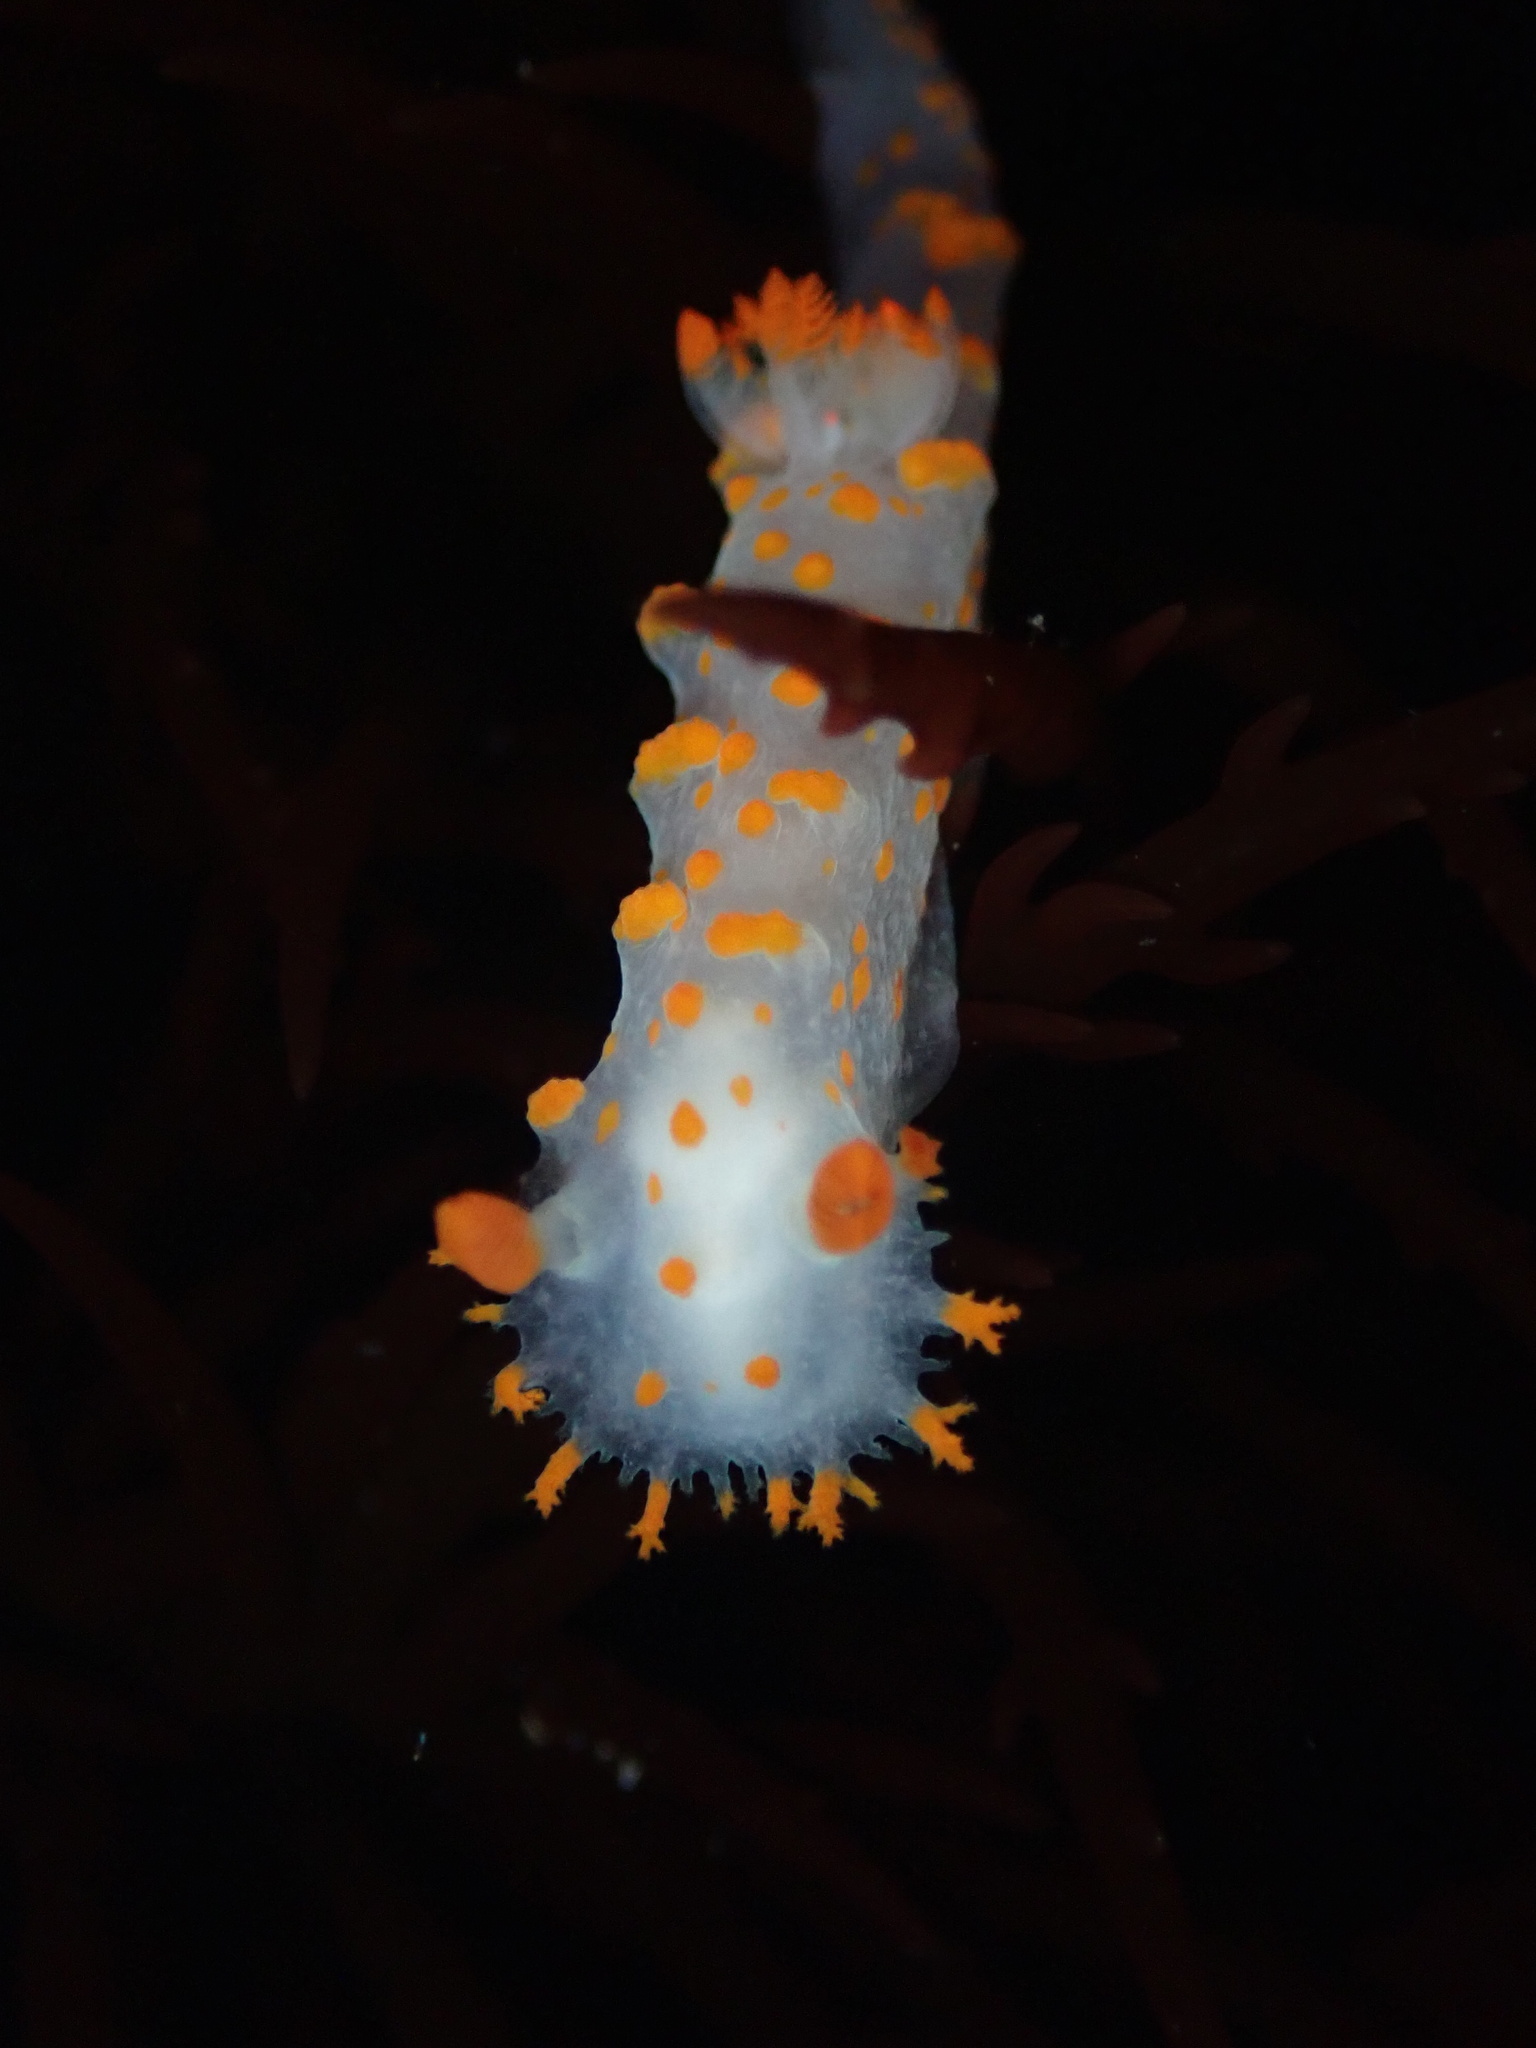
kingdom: Animalia
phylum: Mollusca
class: Gastropoda
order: Nudibranchia
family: Polyceridae
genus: Triopha
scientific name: Triopha catalinae
